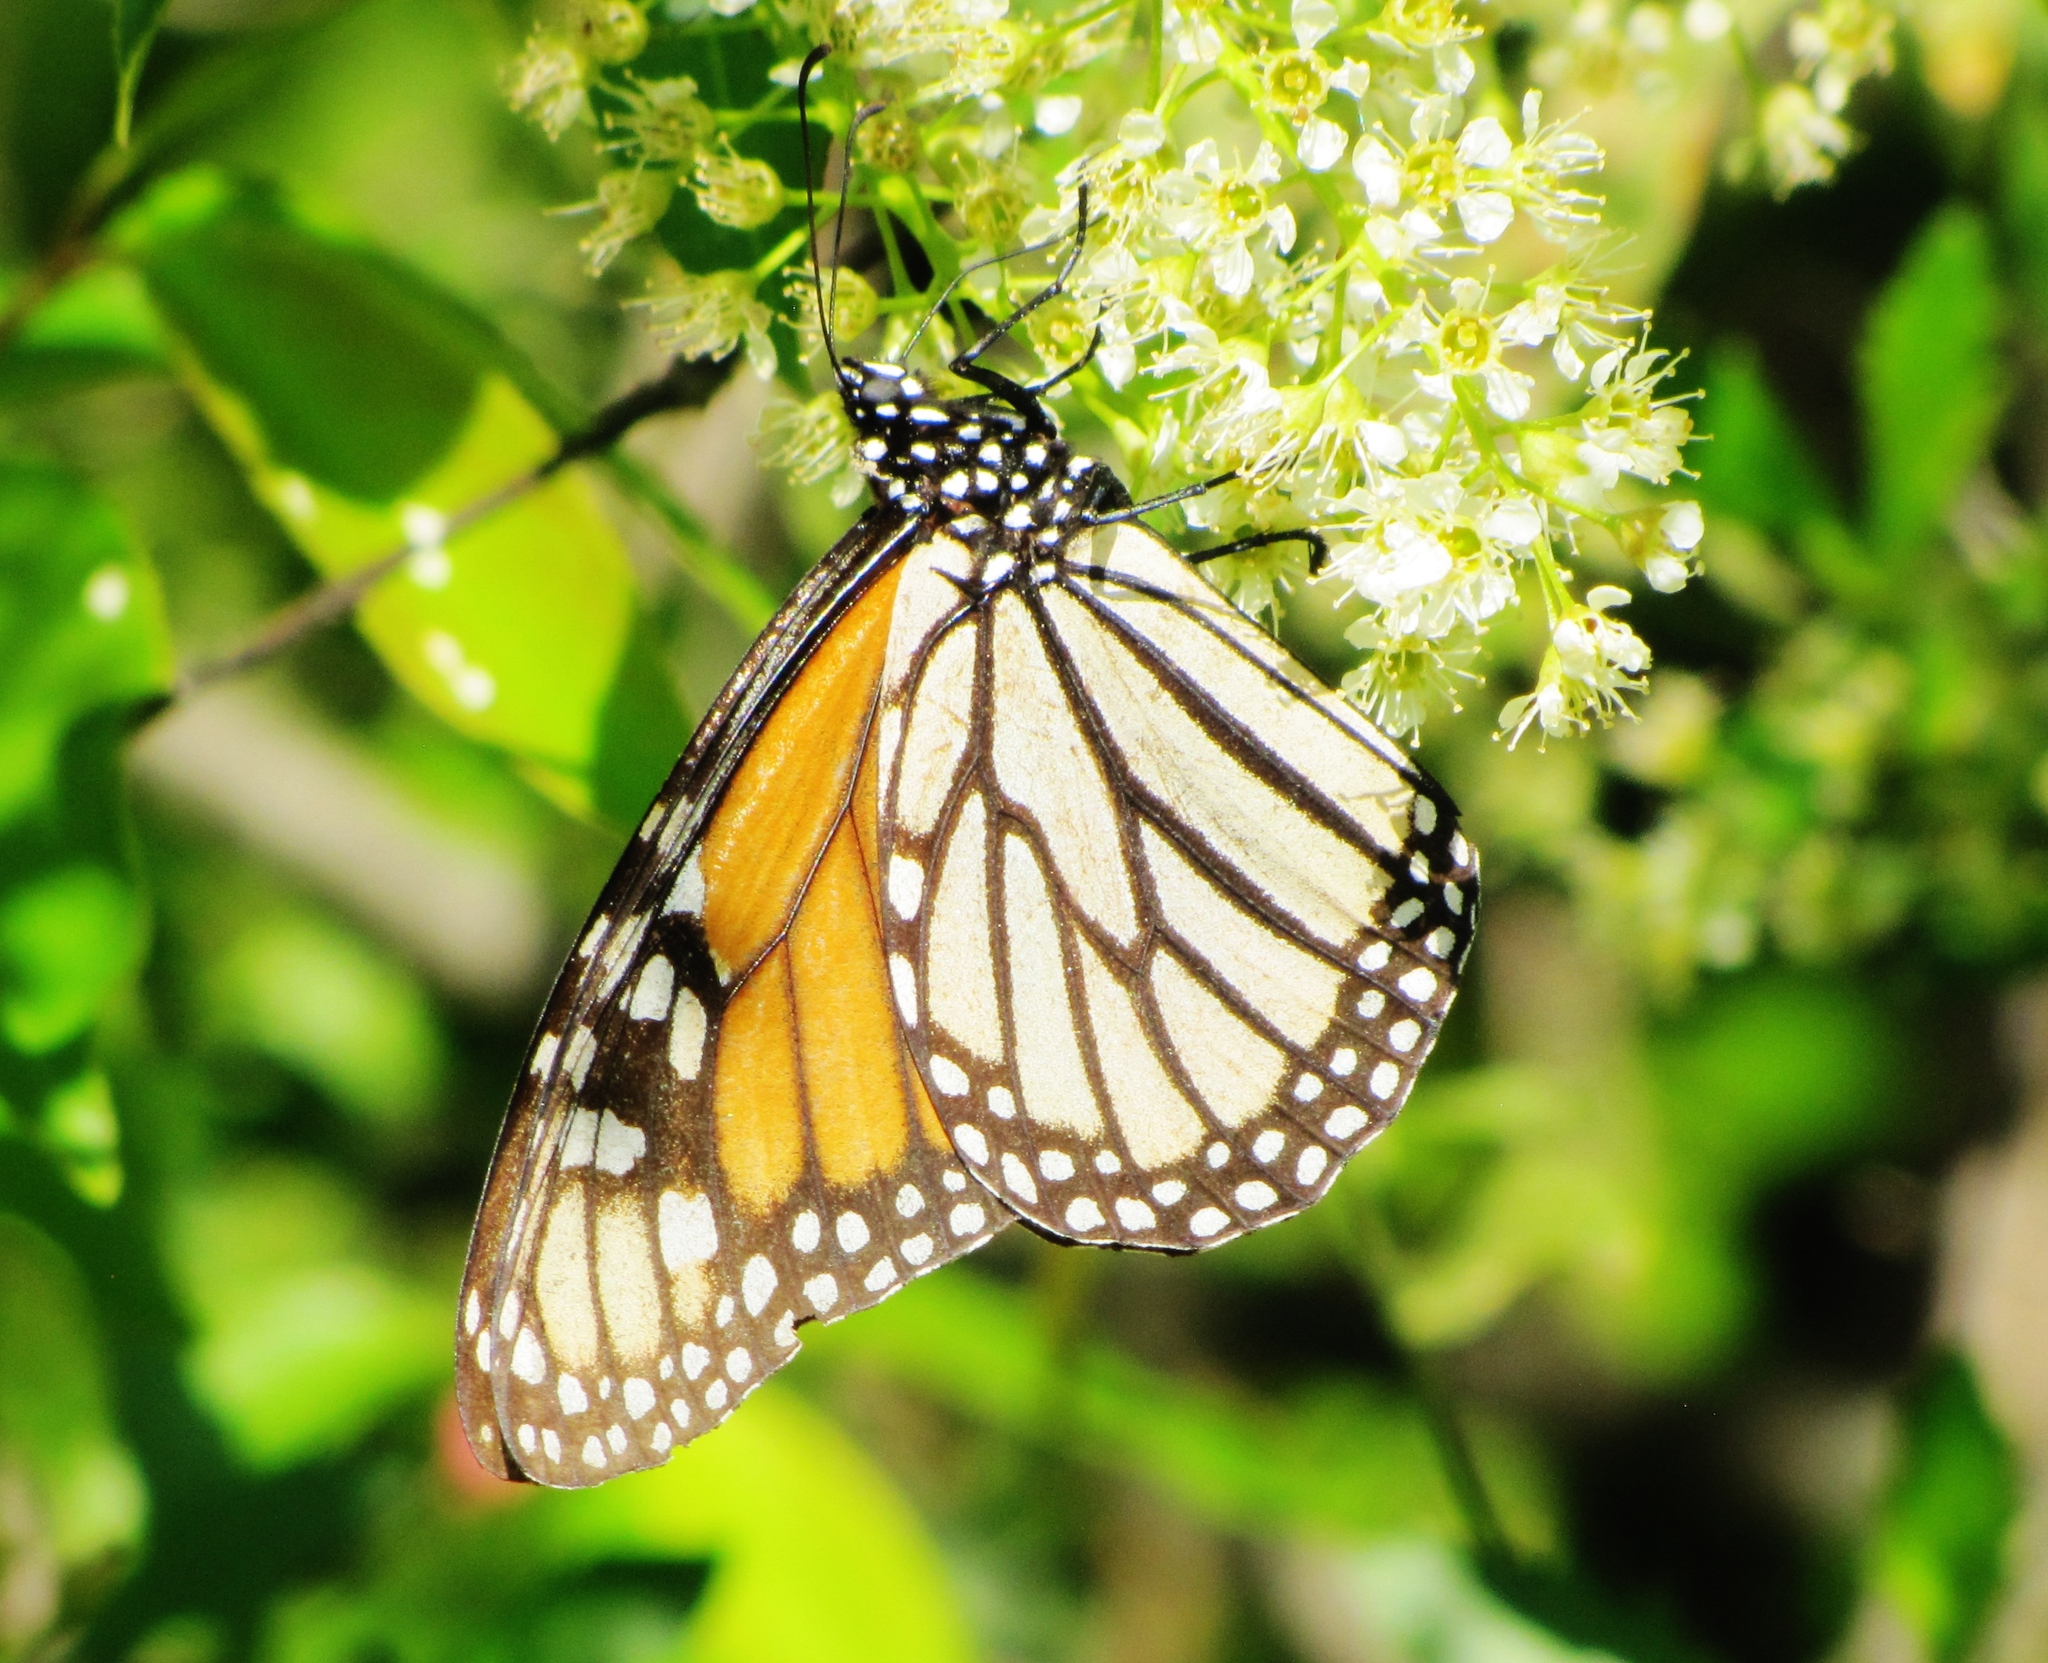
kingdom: Animalia
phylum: Arthropoda
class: Insecta
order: Lepidoptera
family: Nymphalidae
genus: Danaus
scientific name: Danaus plexippus
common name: Monarch
